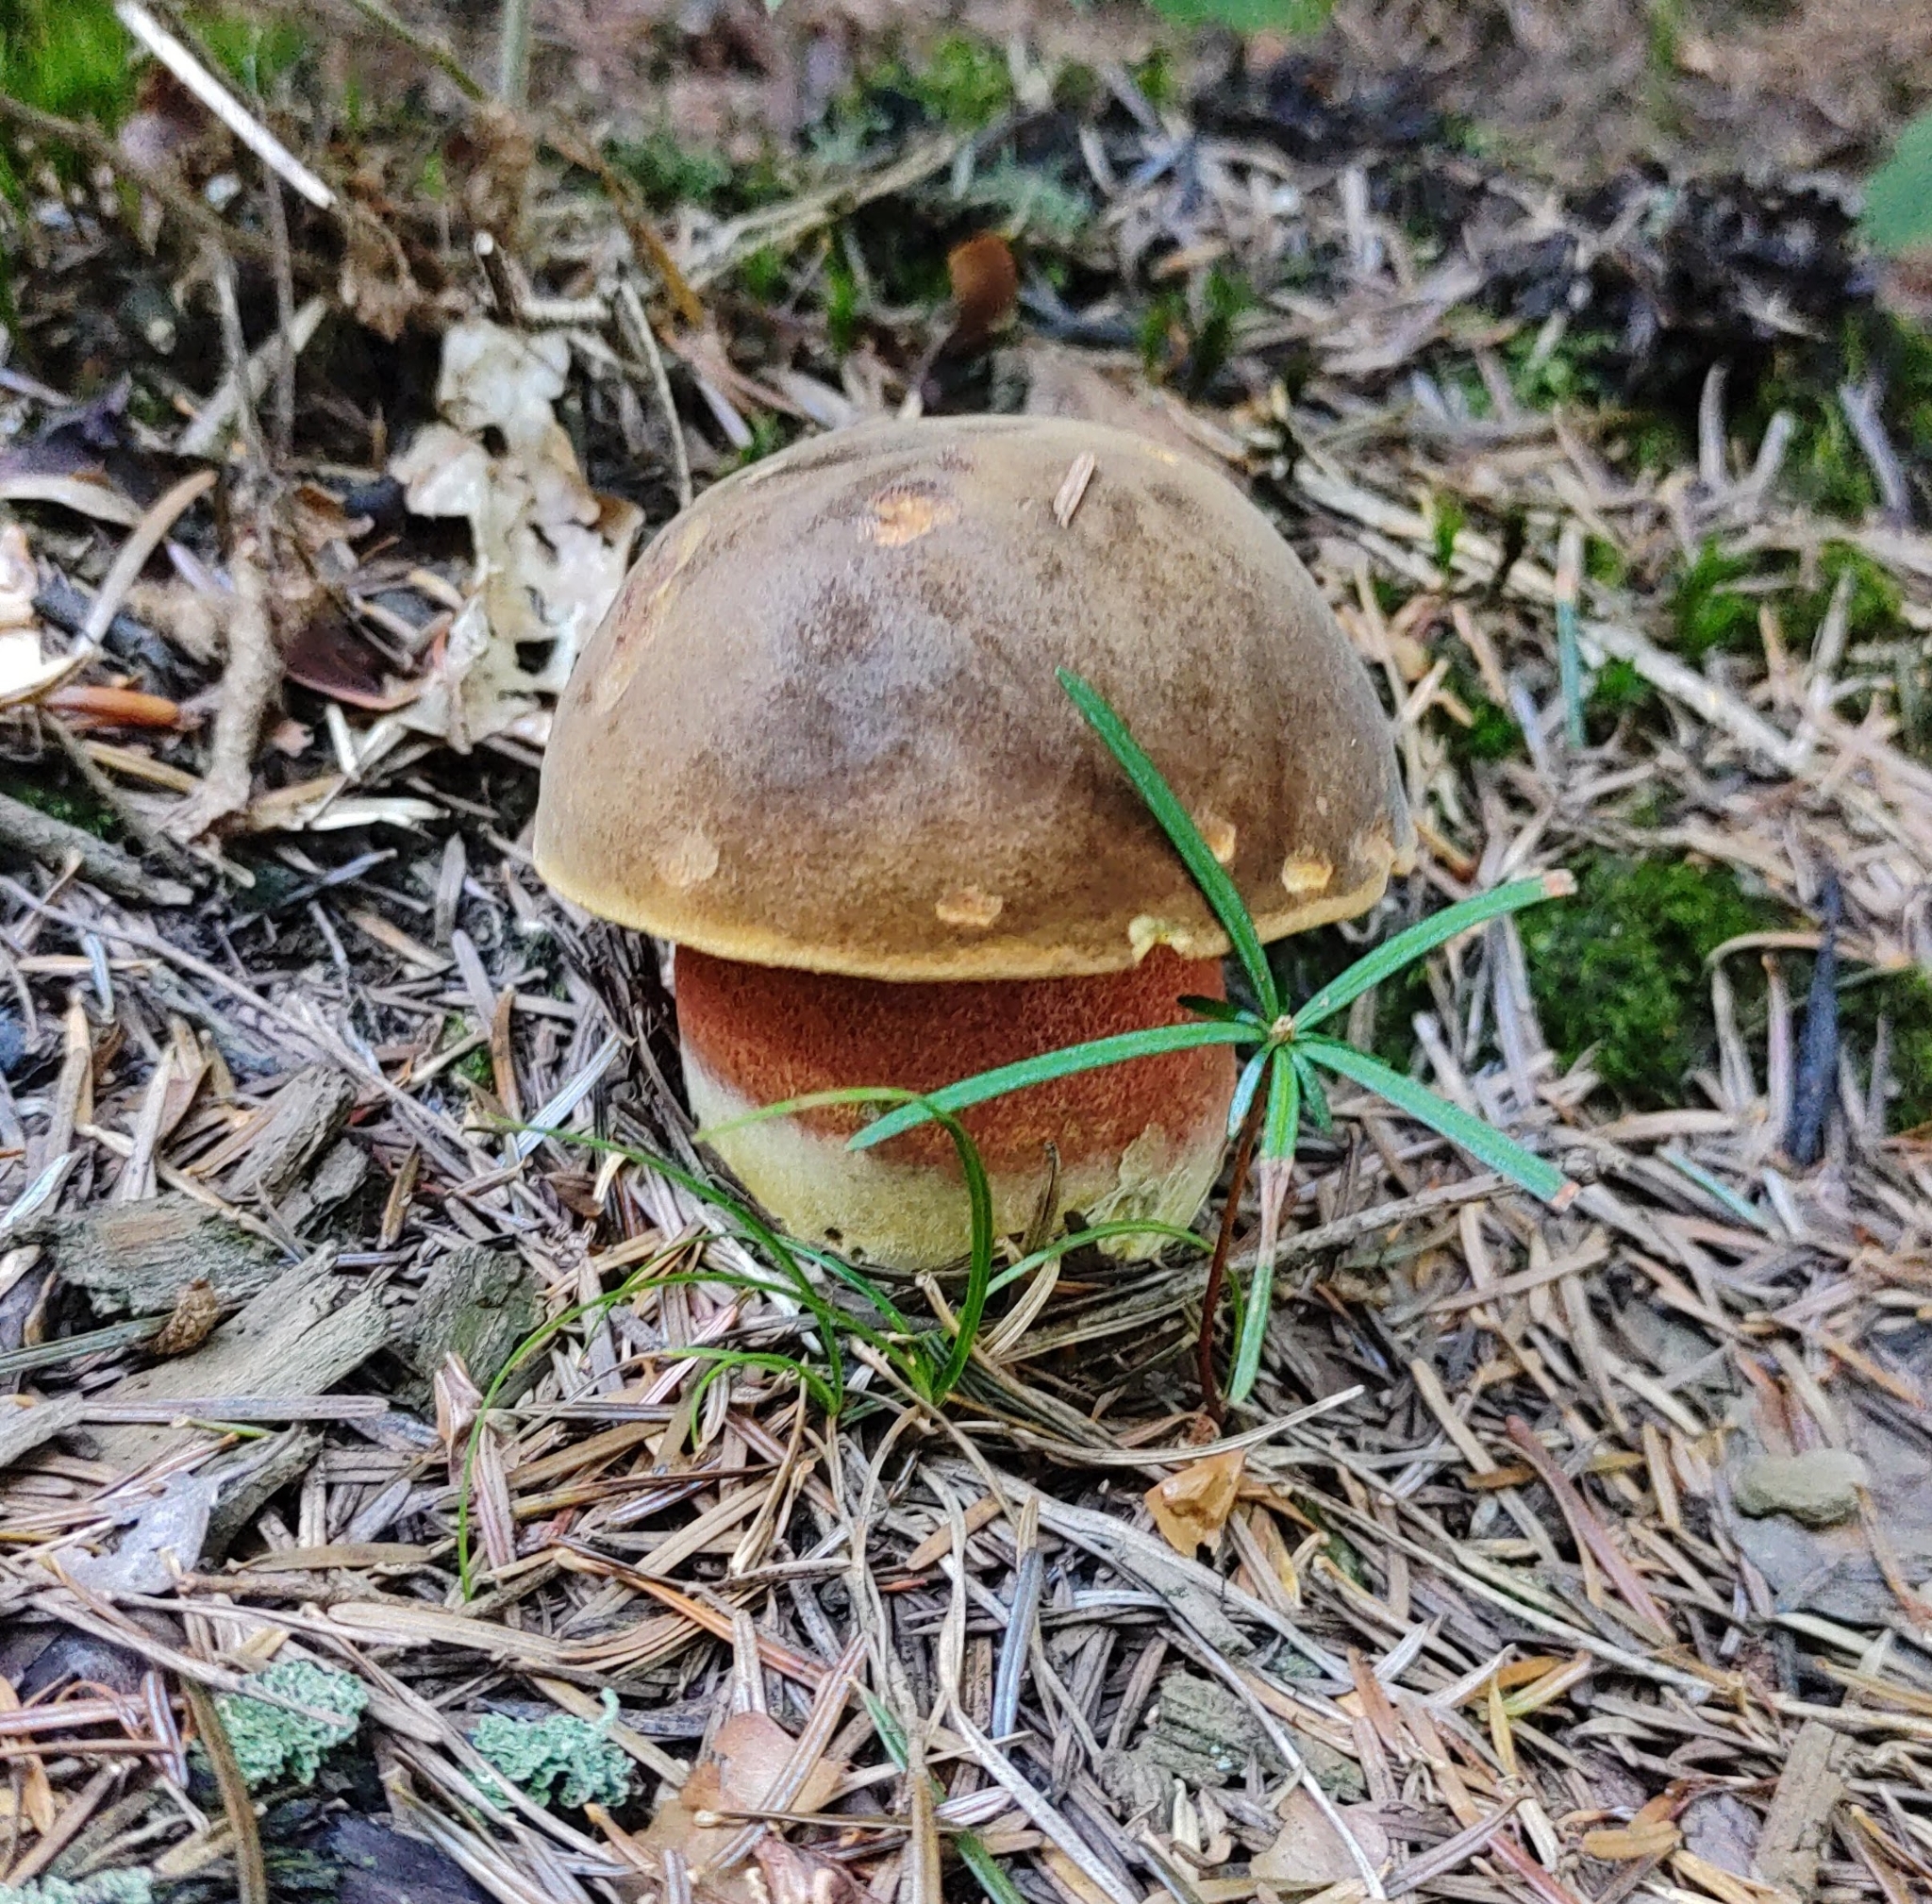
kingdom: Fungi
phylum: Basidiomycota
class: Agaricomycetes
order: Boletales
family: Boletaceae
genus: Neoboletus
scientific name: Neoboletus luridiformis
